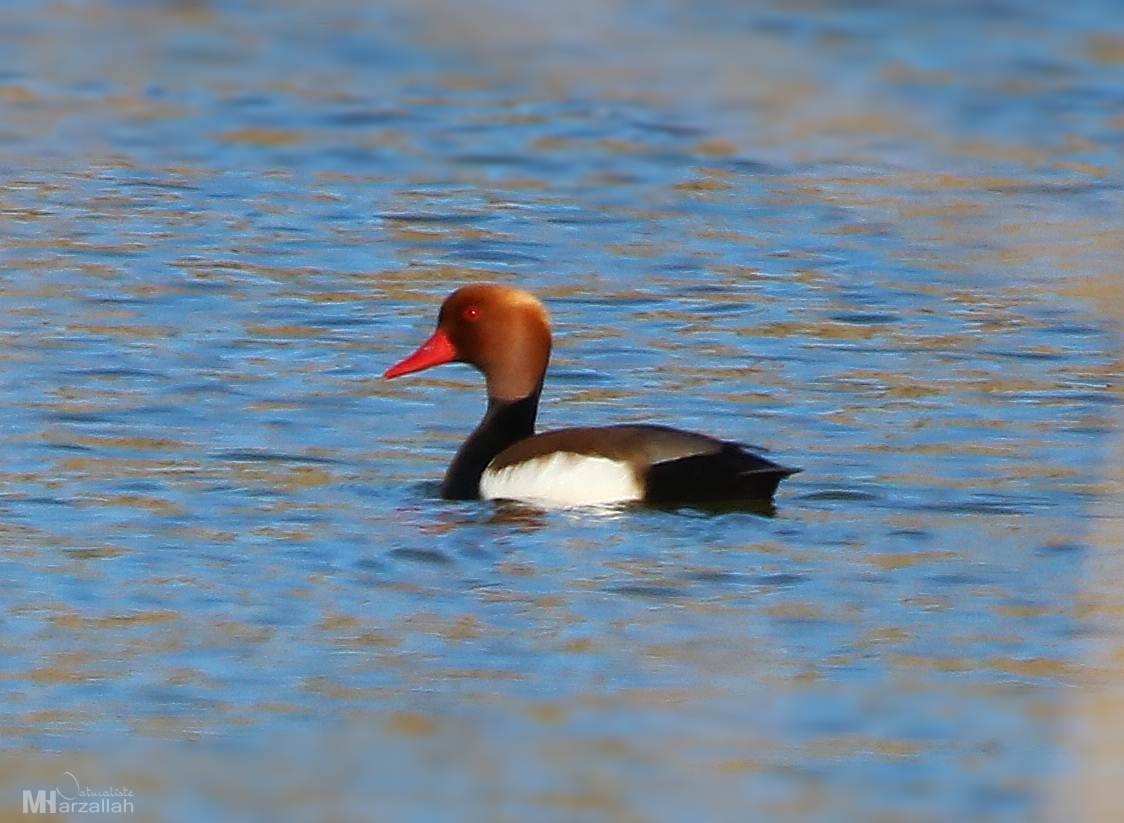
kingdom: Animalia
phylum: Chordata
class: Aves
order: Anseriformes
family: Anatidae
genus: Netta
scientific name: Netta rufina
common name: Red-crested pochard
